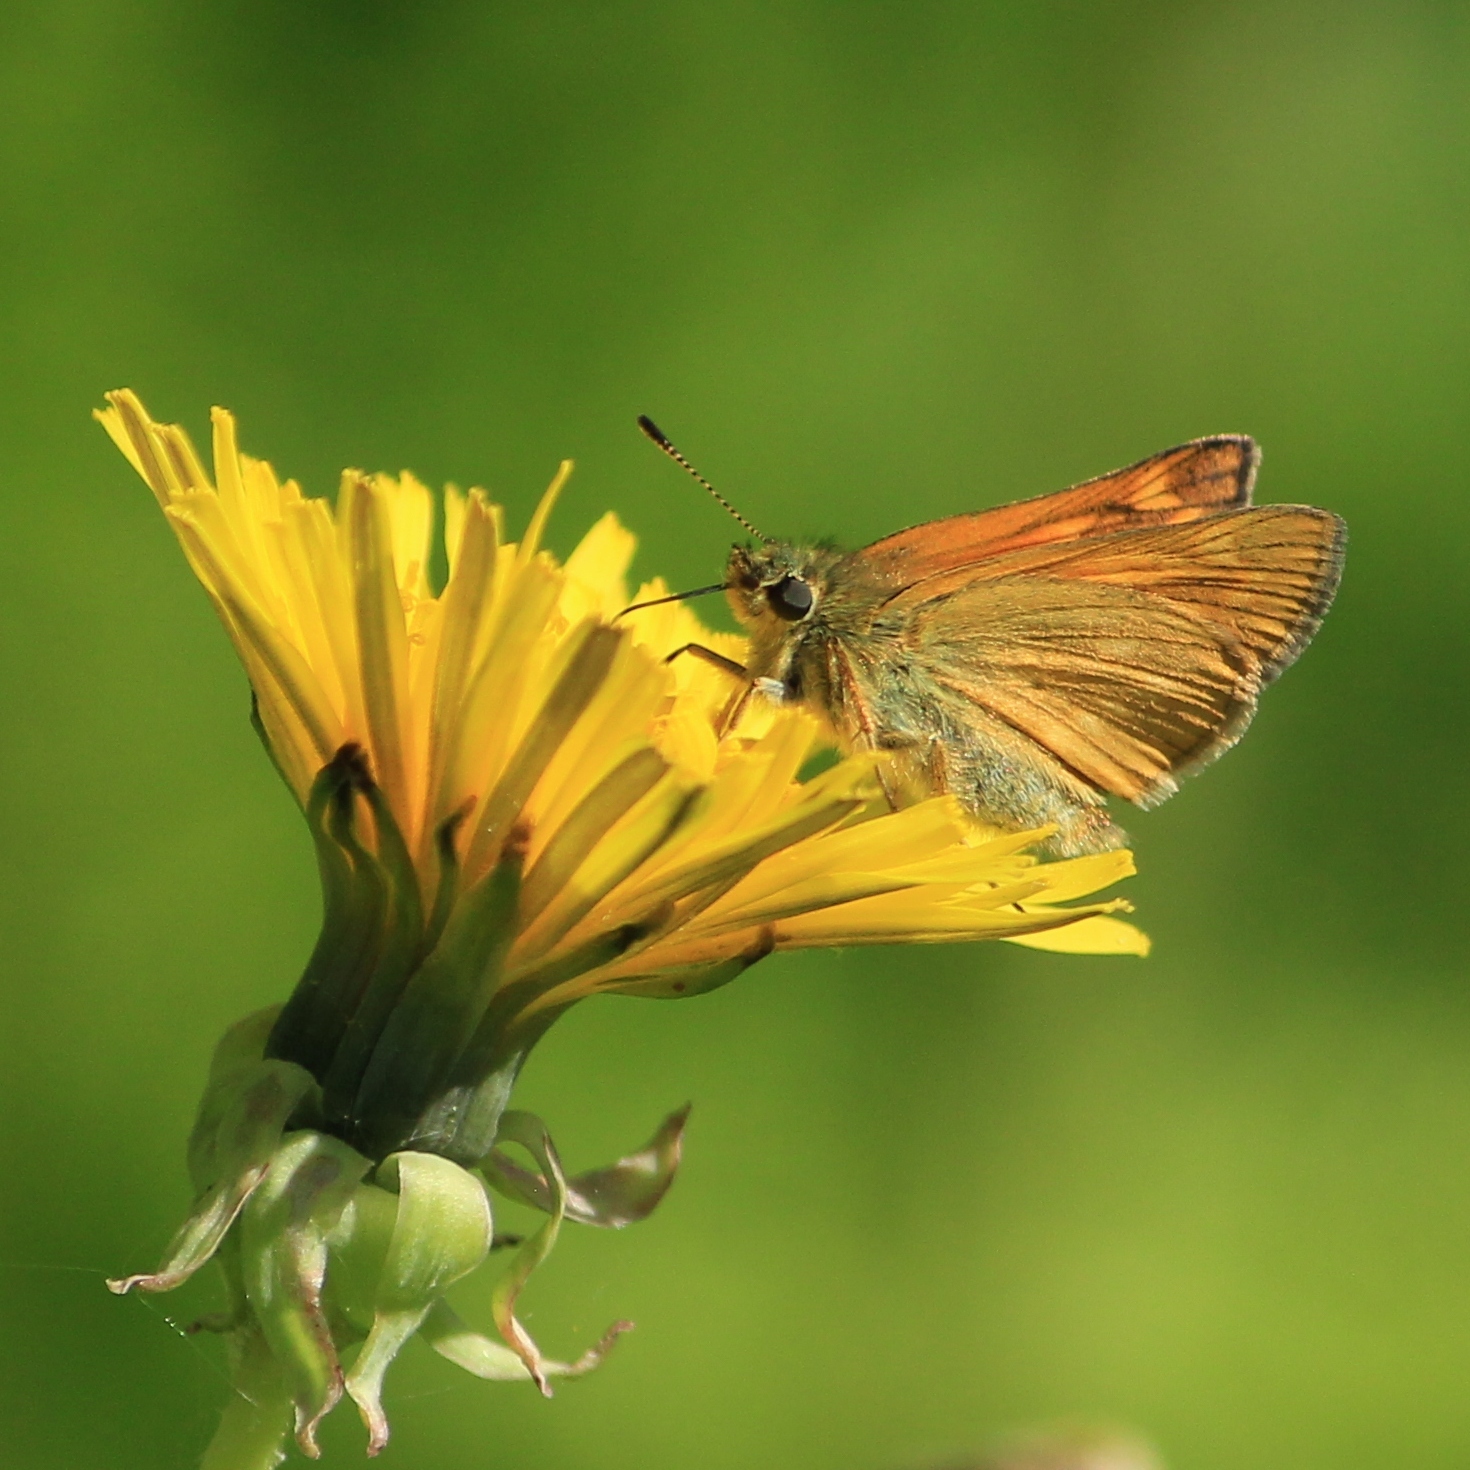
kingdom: Animalia
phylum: Arthropoda
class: Insecta
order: Lepidoptera
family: Hesperiidae
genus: Ochlodes
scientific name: Ochlodes venata
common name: Large skipper
